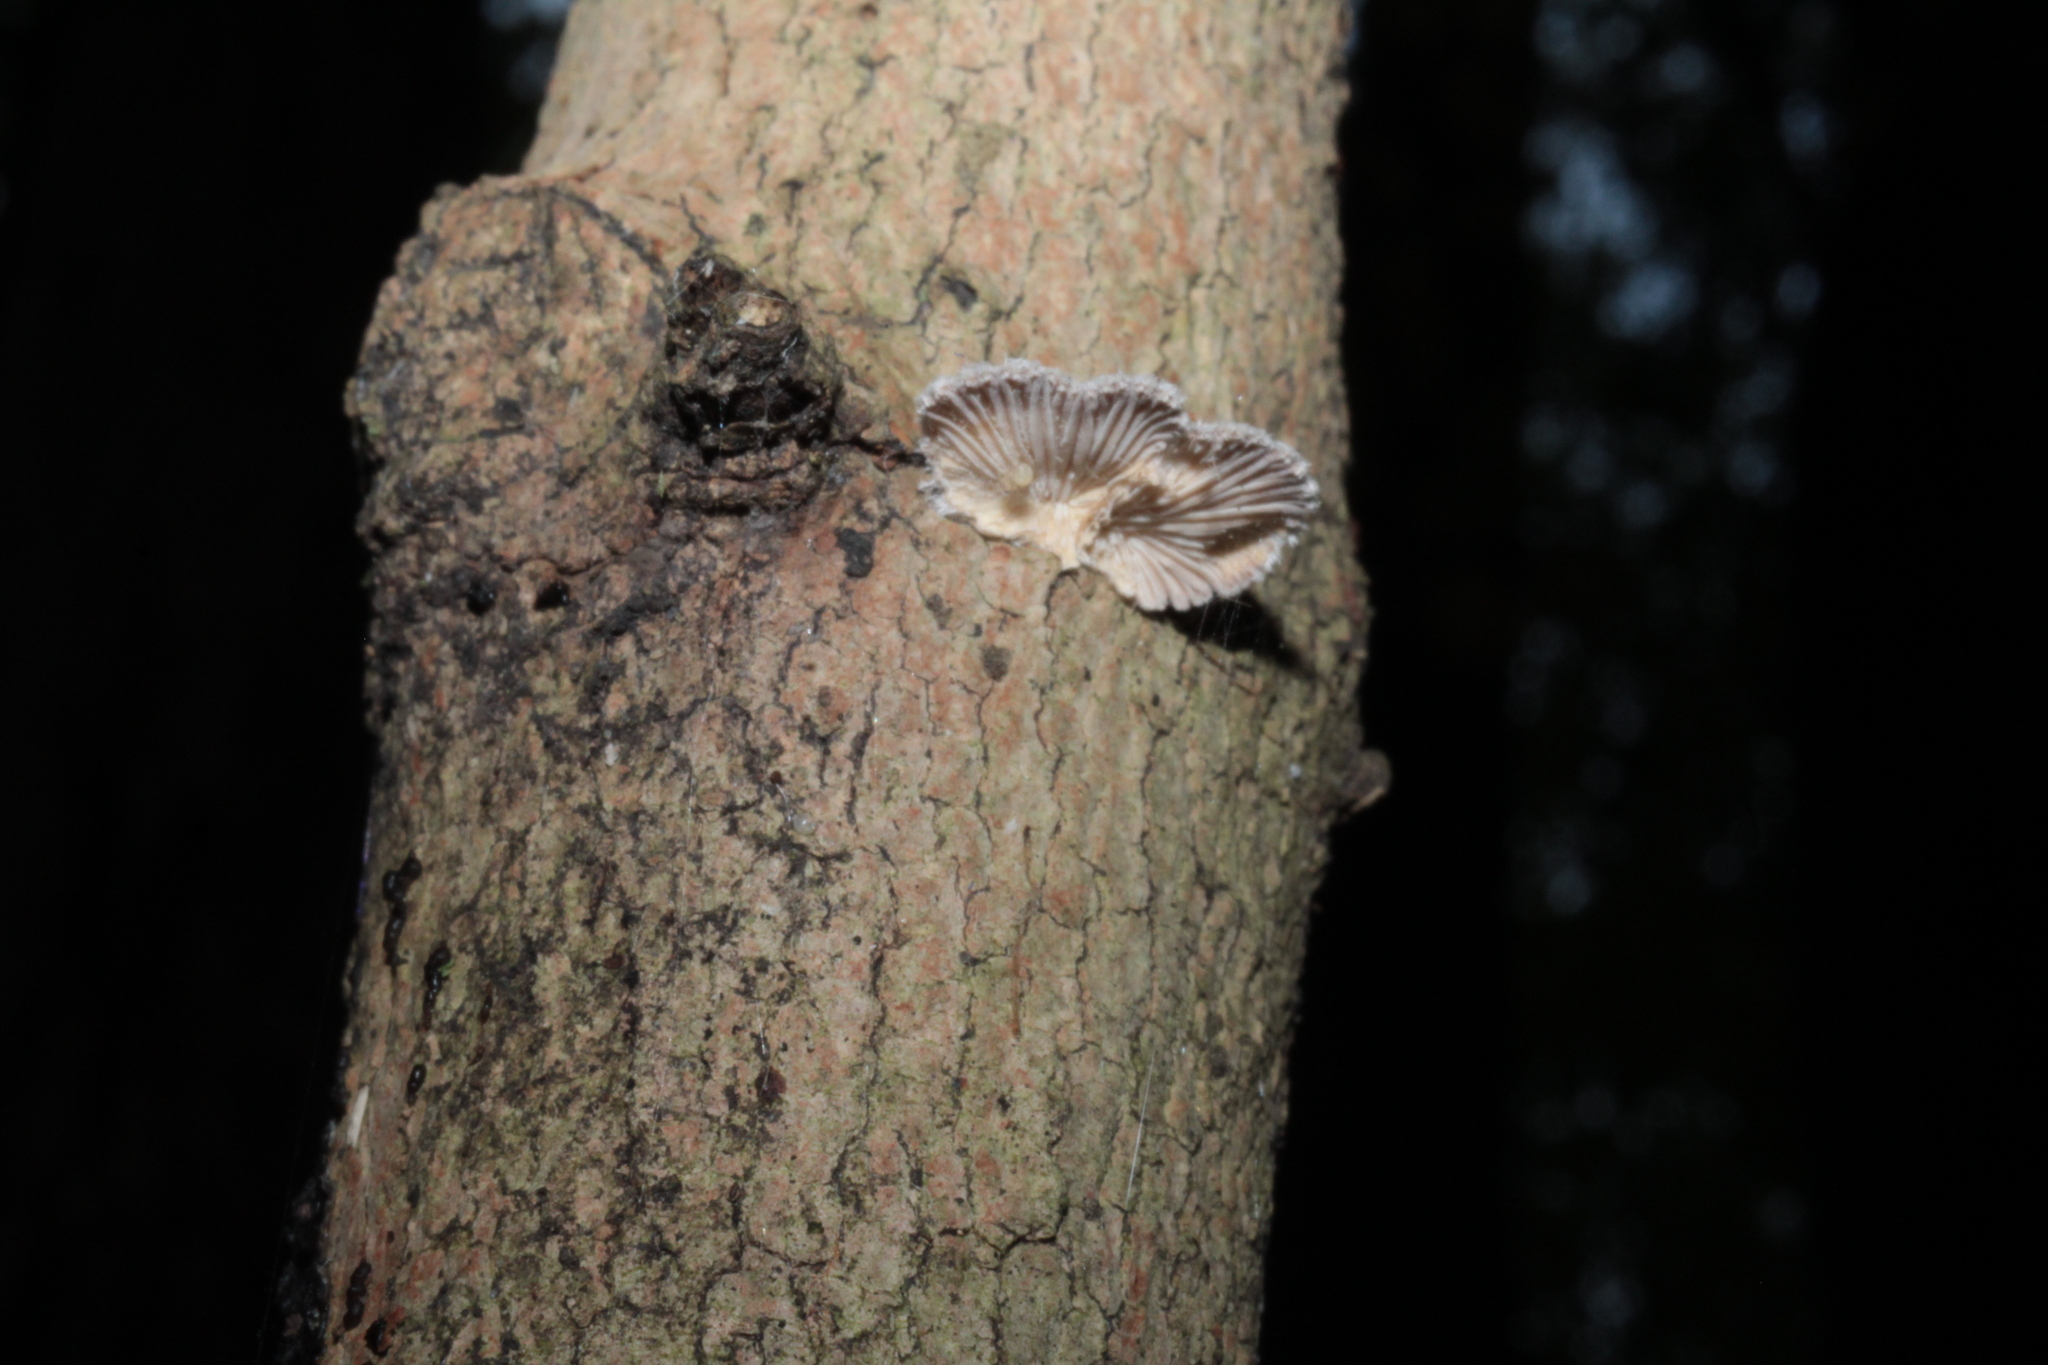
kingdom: Fungi
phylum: Basidiomycota
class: Agaricomycetes
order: Agaricales
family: Schizophyllaceae
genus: Schizophyllum
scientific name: Schizophyllum commune
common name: Common porecrust
